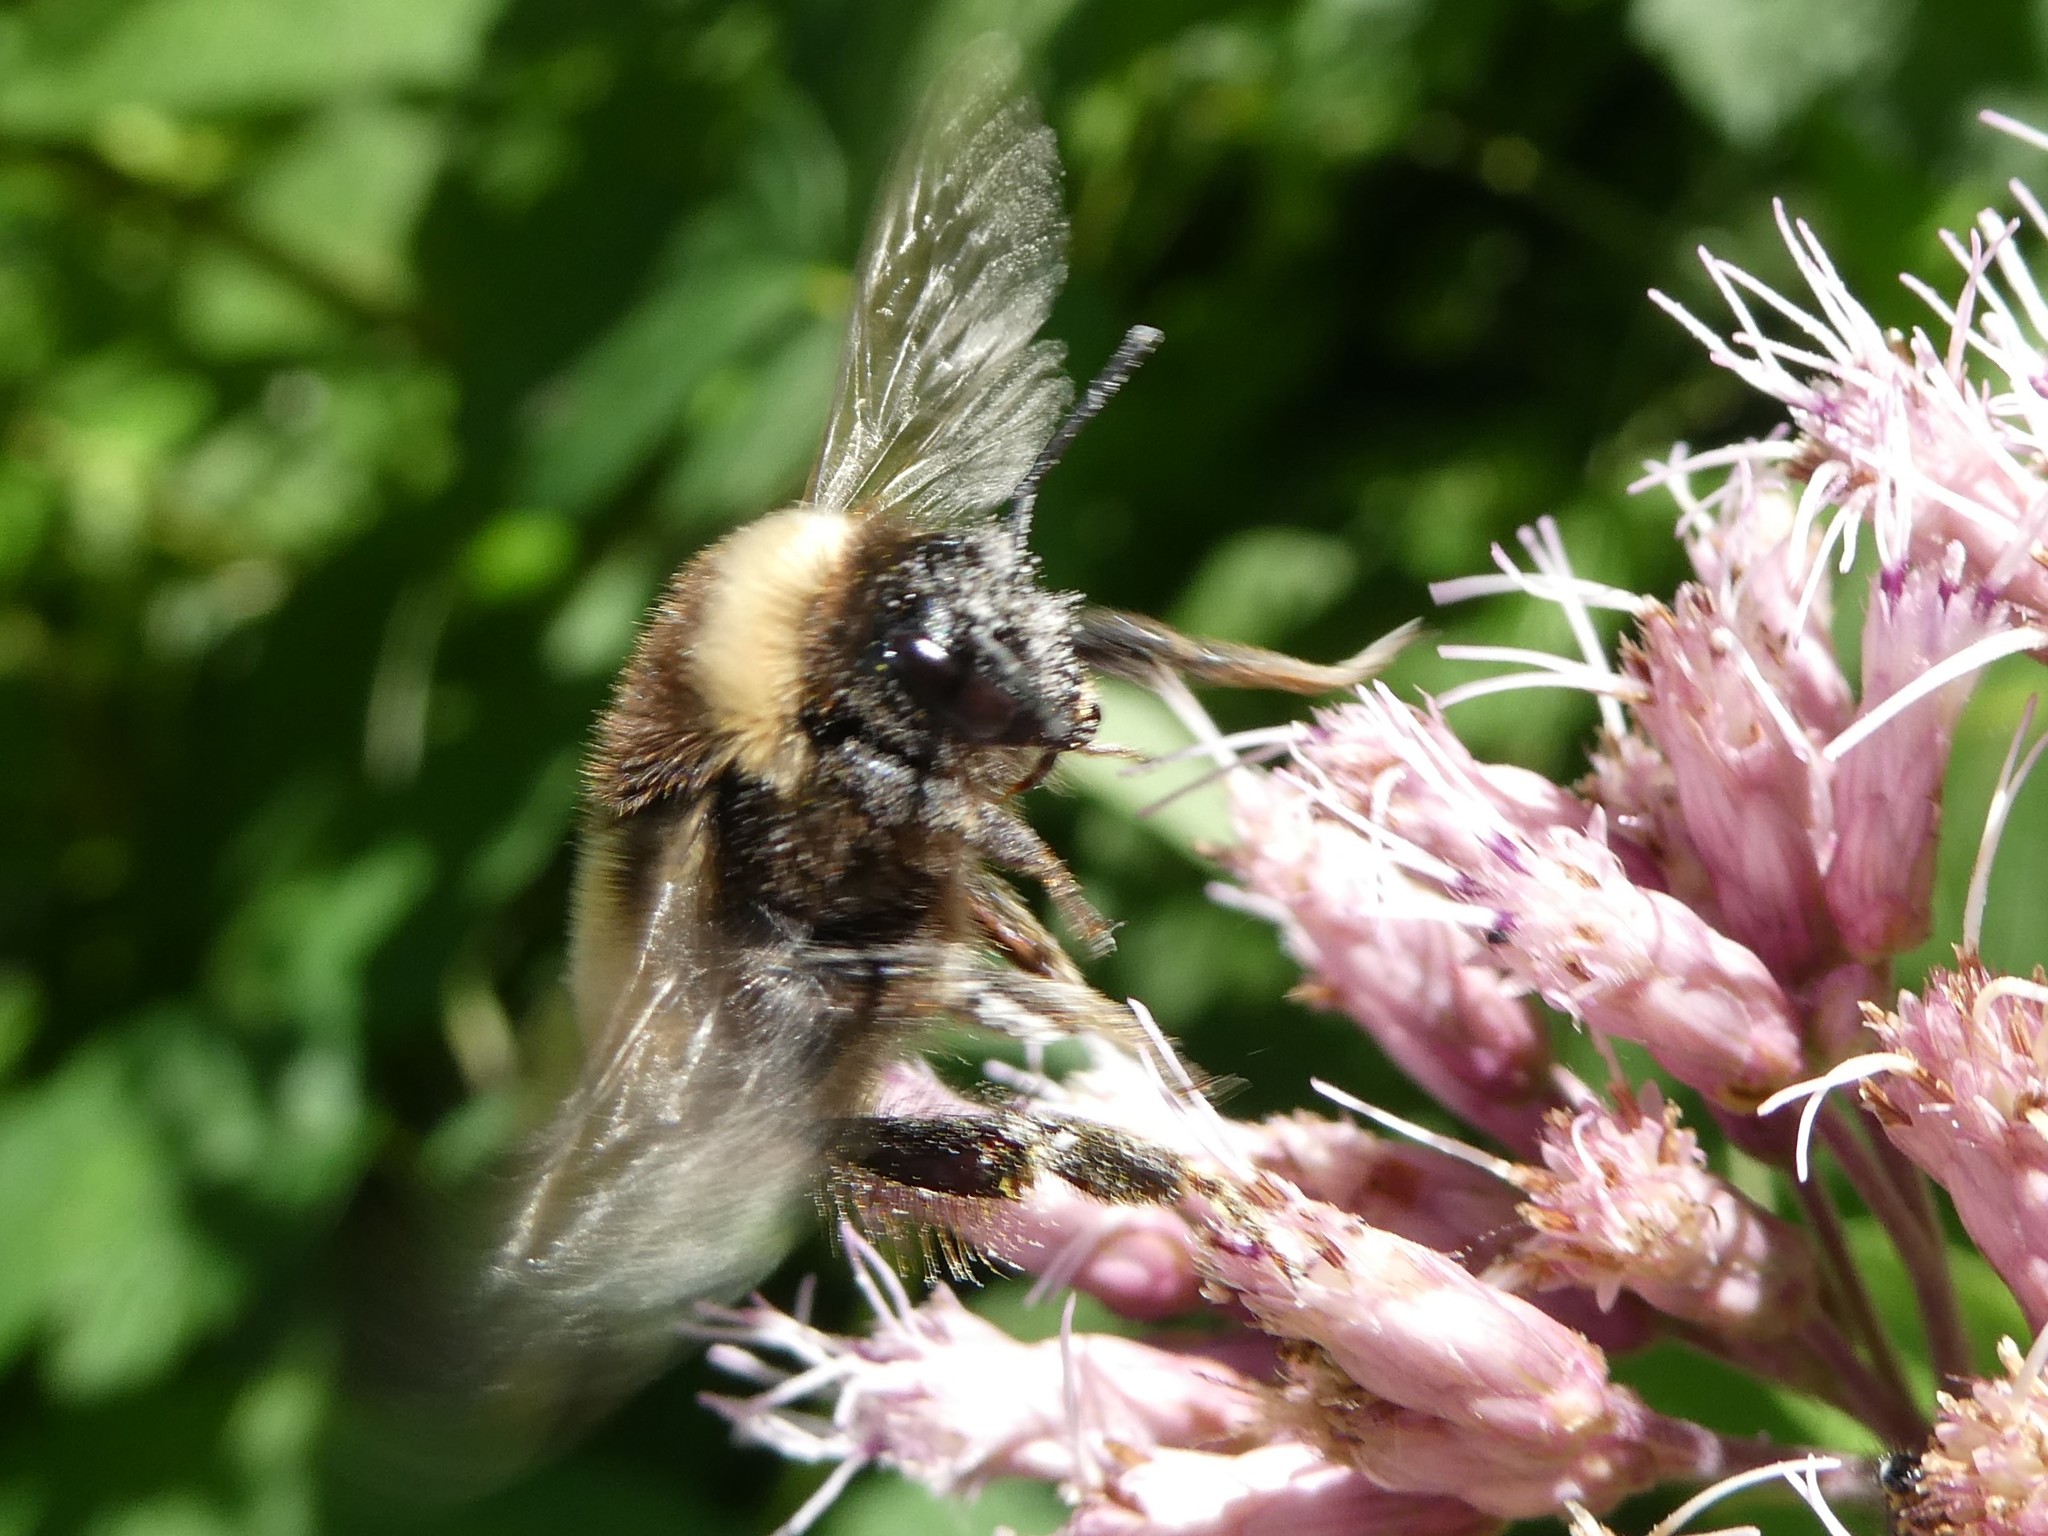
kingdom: Animalia
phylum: Arthropoda
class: Insecta
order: Hymenoptera
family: Apidae
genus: Bombus
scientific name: Bombus terricola
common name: Yellow-banded bumble bee
